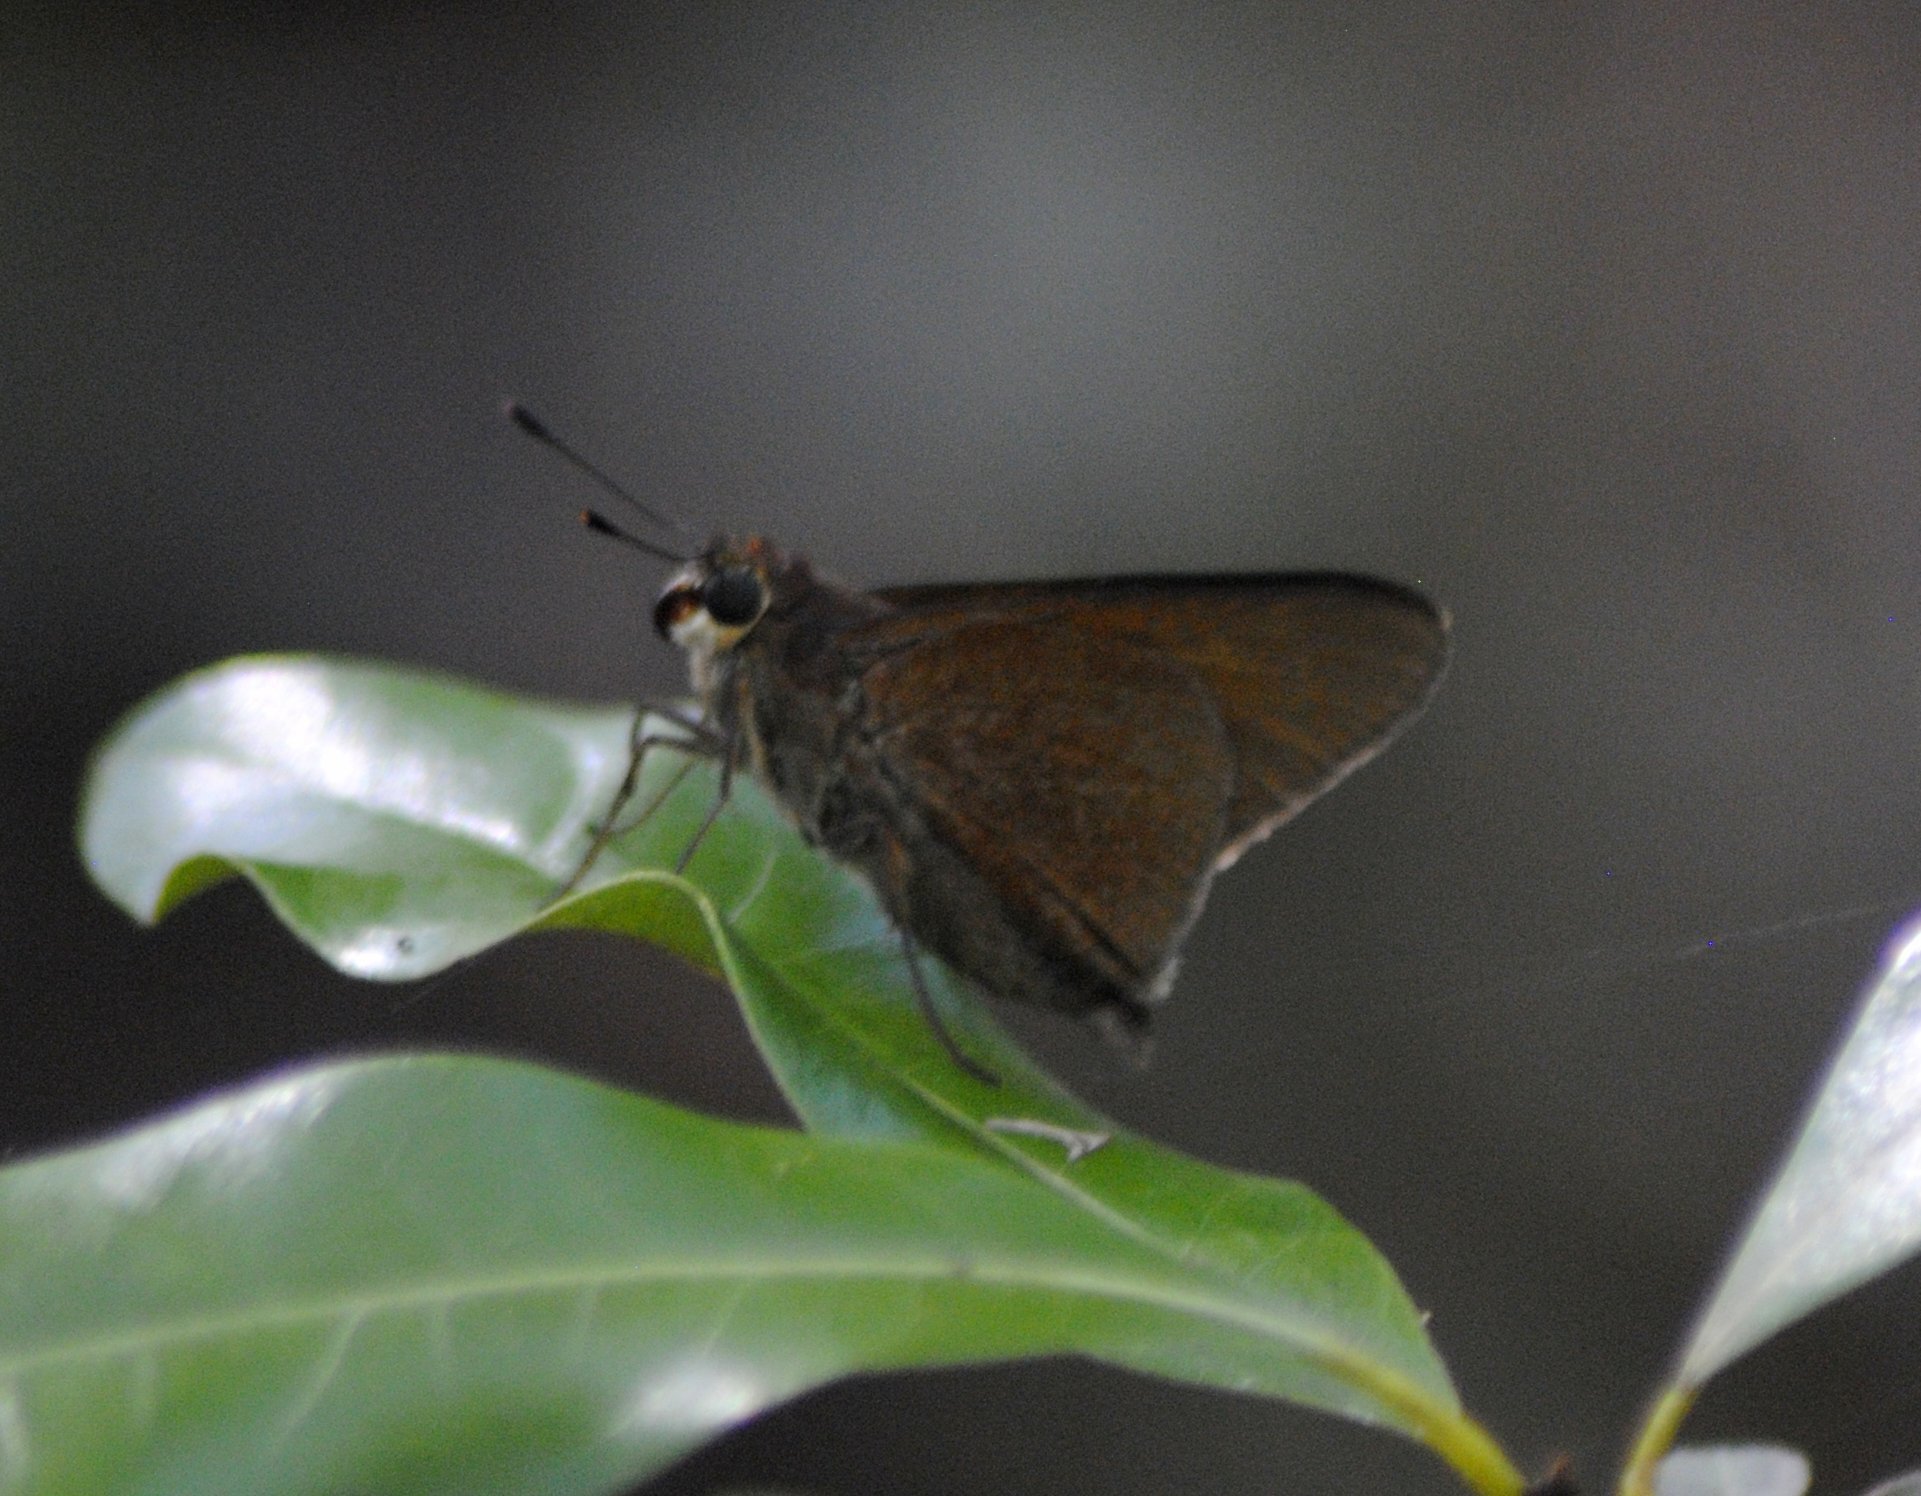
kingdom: Animalia
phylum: Arthropoda
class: Insecta
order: Lepidoptera
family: Hesperiidae
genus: Asbolis
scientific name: Asbolis capucinus
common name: Monk skipper
